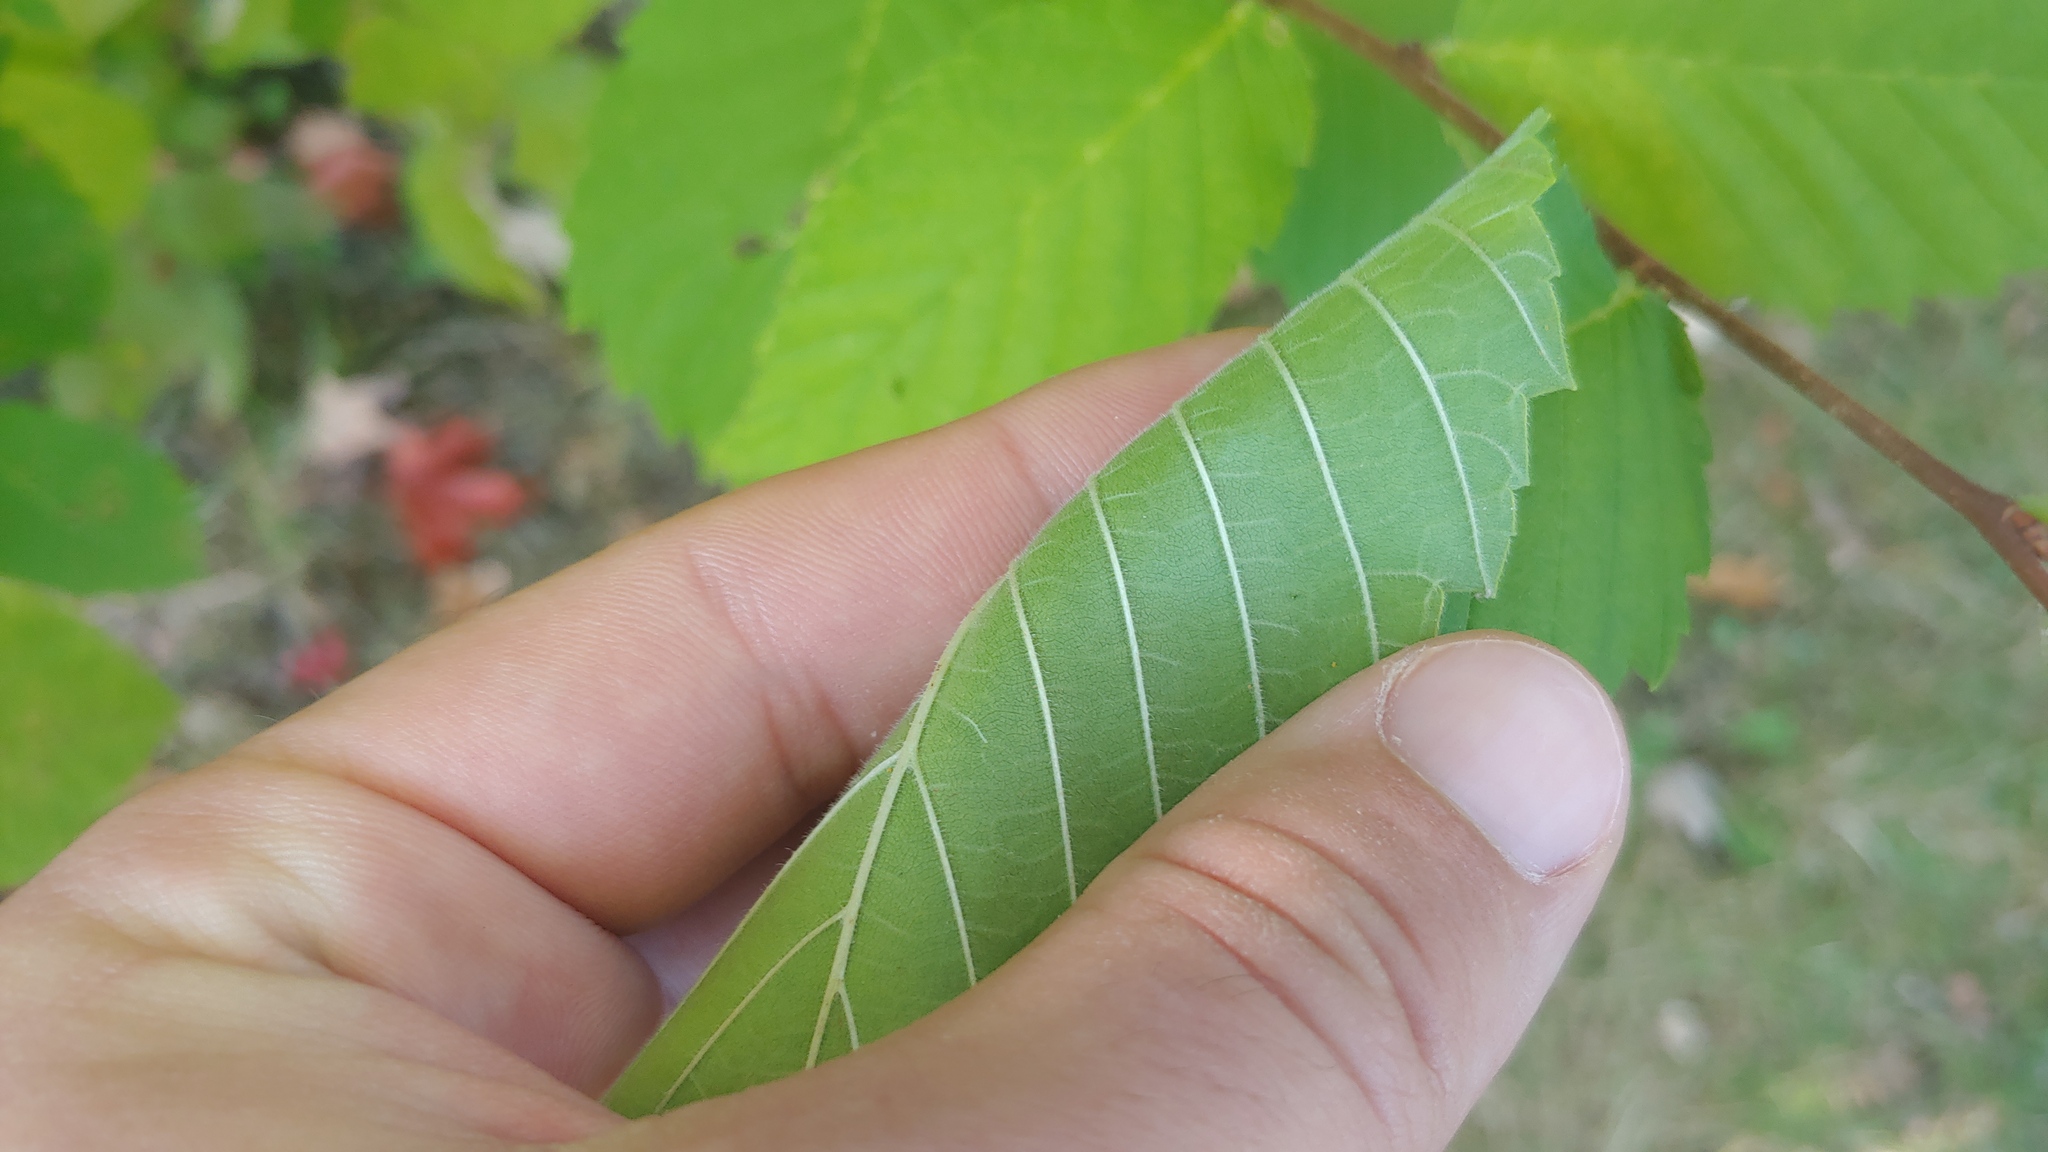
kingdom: Plantae
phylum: Tracheophyta
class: Magnoliopsida
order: Rosales
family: Ulmaceae
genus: Ulmus
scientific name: Ulmus americana
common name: American elm
